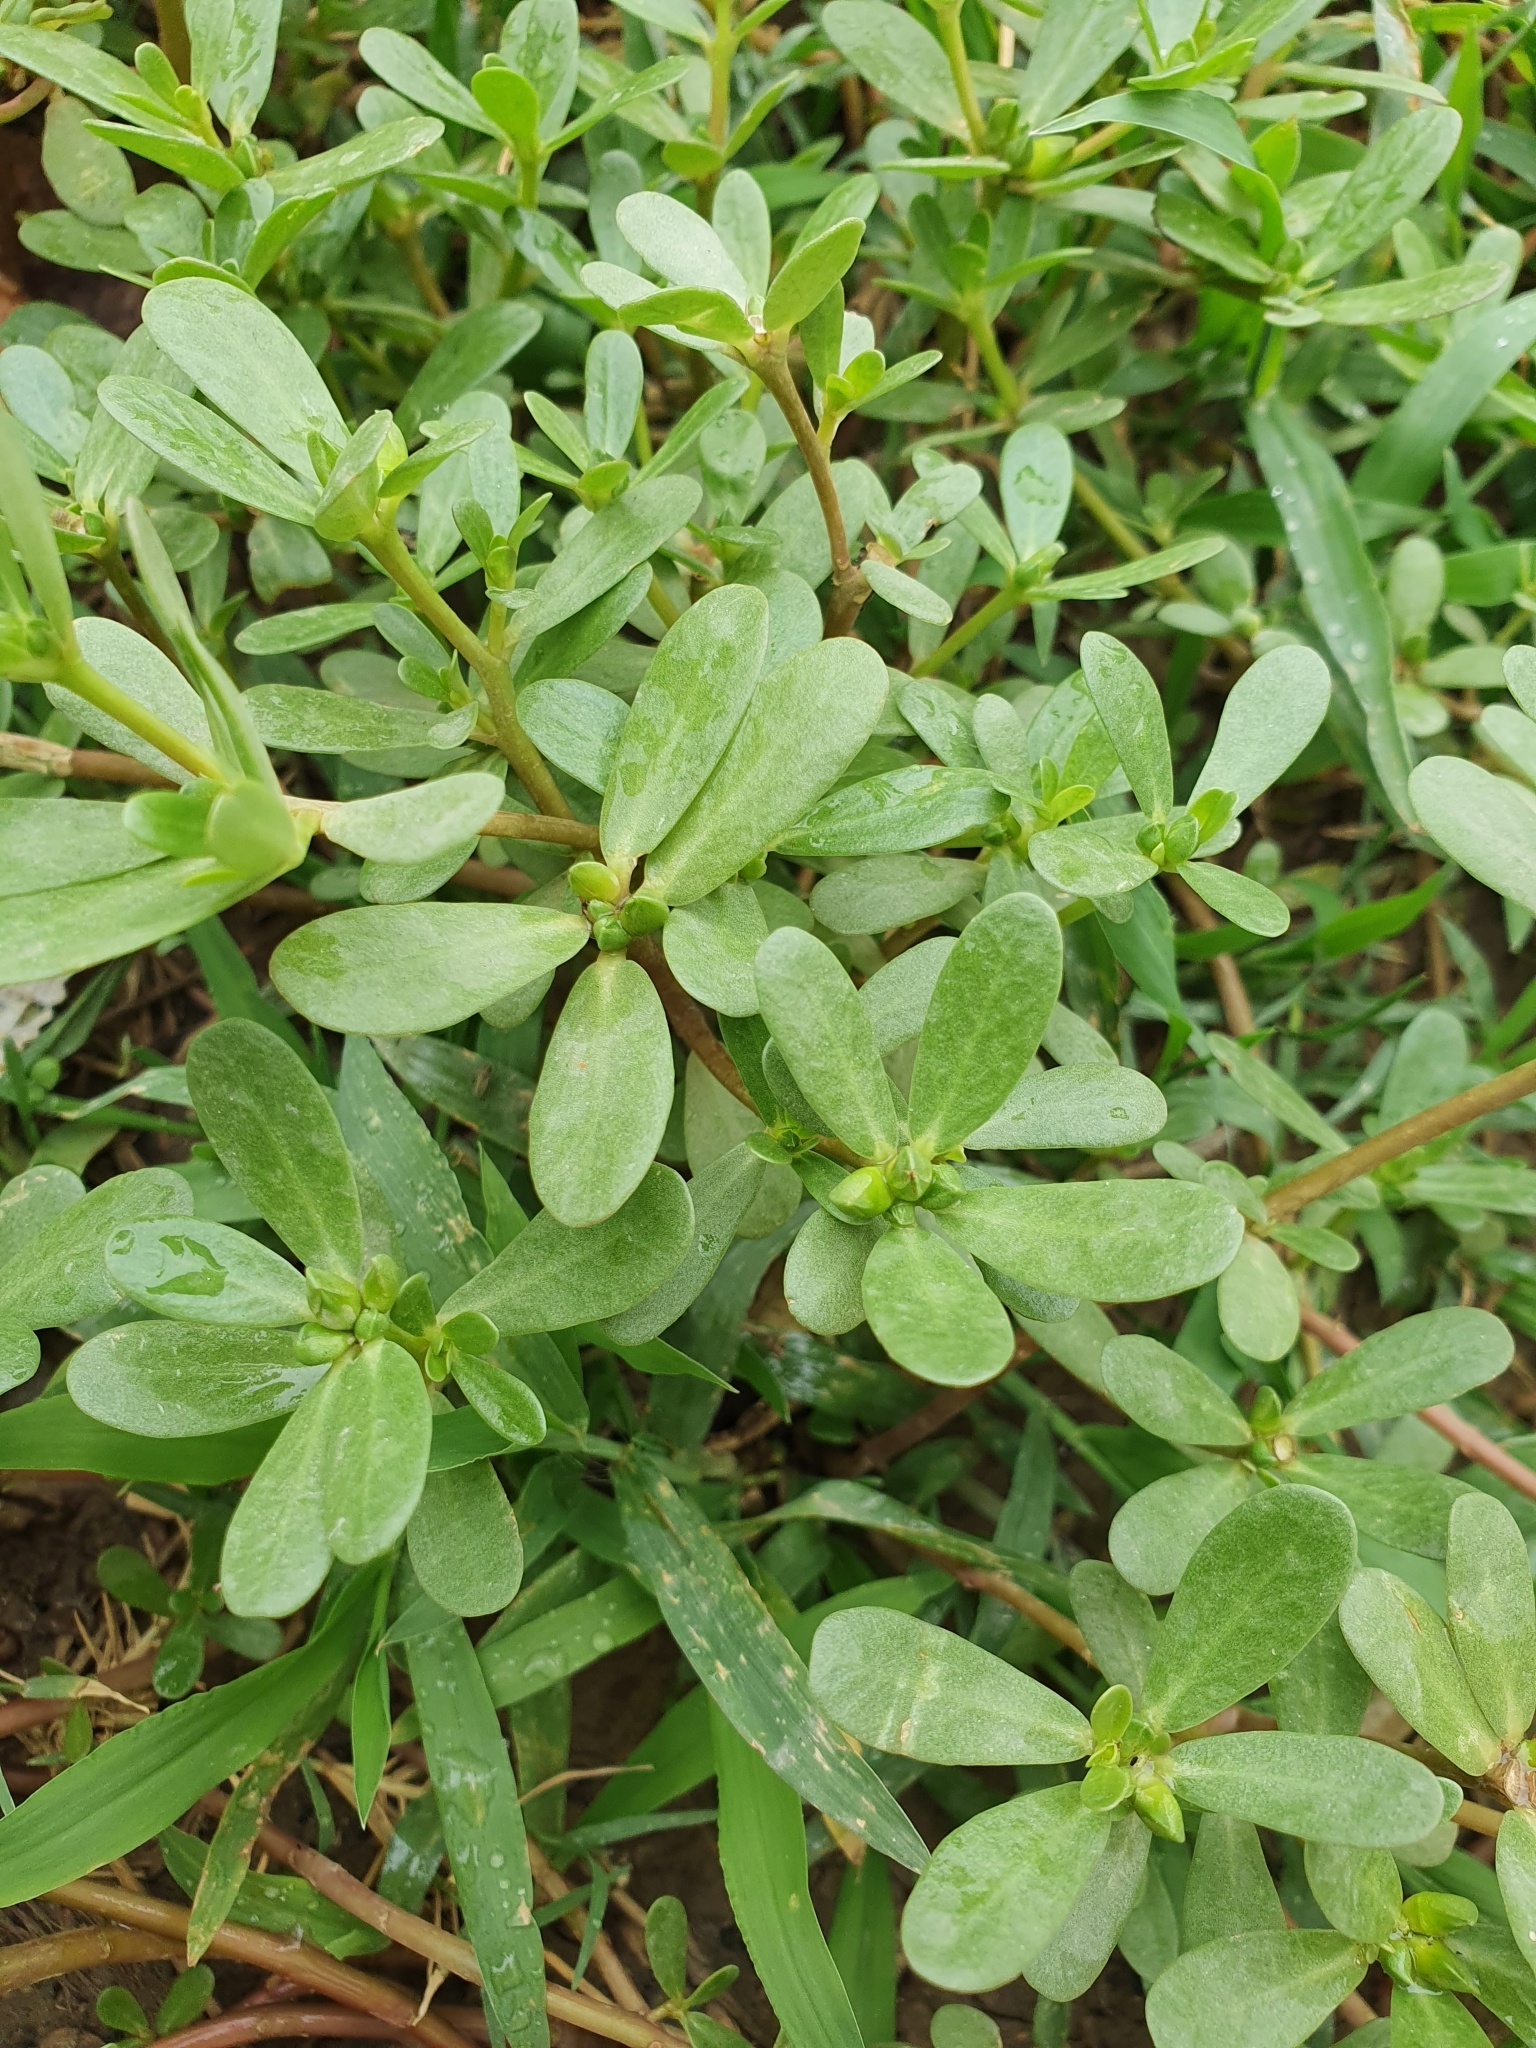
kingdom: Plantae
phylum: Tracheophyta
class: Magnoliopsida
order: Caryophyllales
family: Portulacaceae
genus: Portulaca
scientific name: Portulaca oleracea
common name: Common purslane
